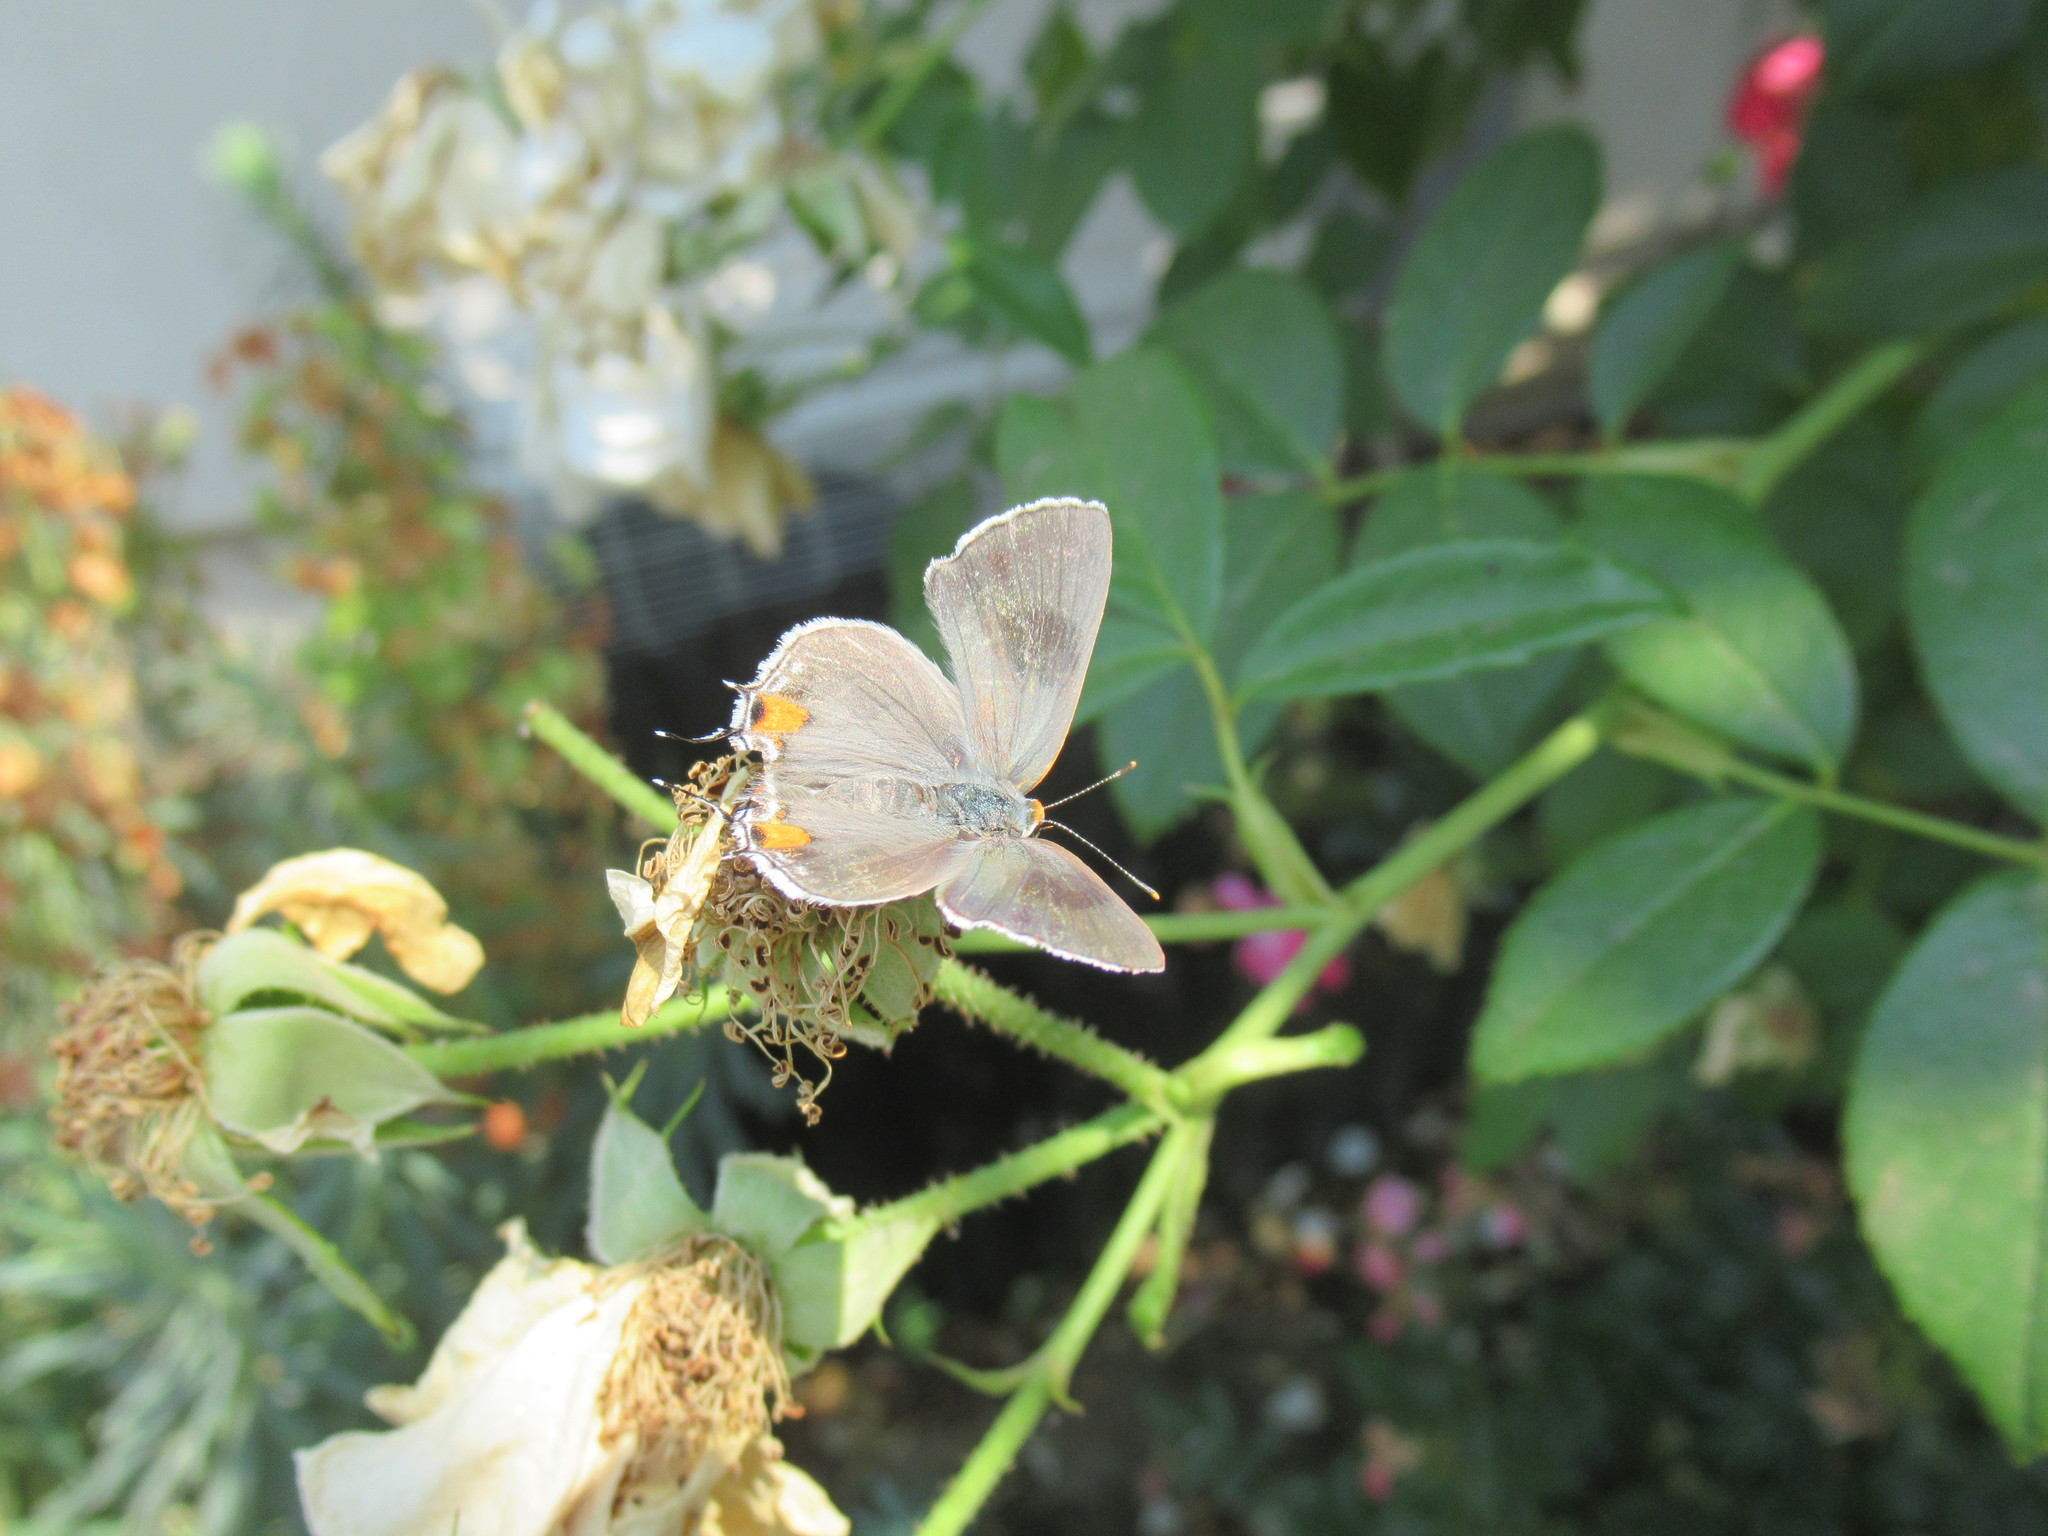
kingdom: Animalia
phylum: Arthropoda
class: Insecta
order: Lepidoptera
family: Lycaenidae
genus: Strymon
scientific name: Strymon melinus
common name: Gray hairstreak
